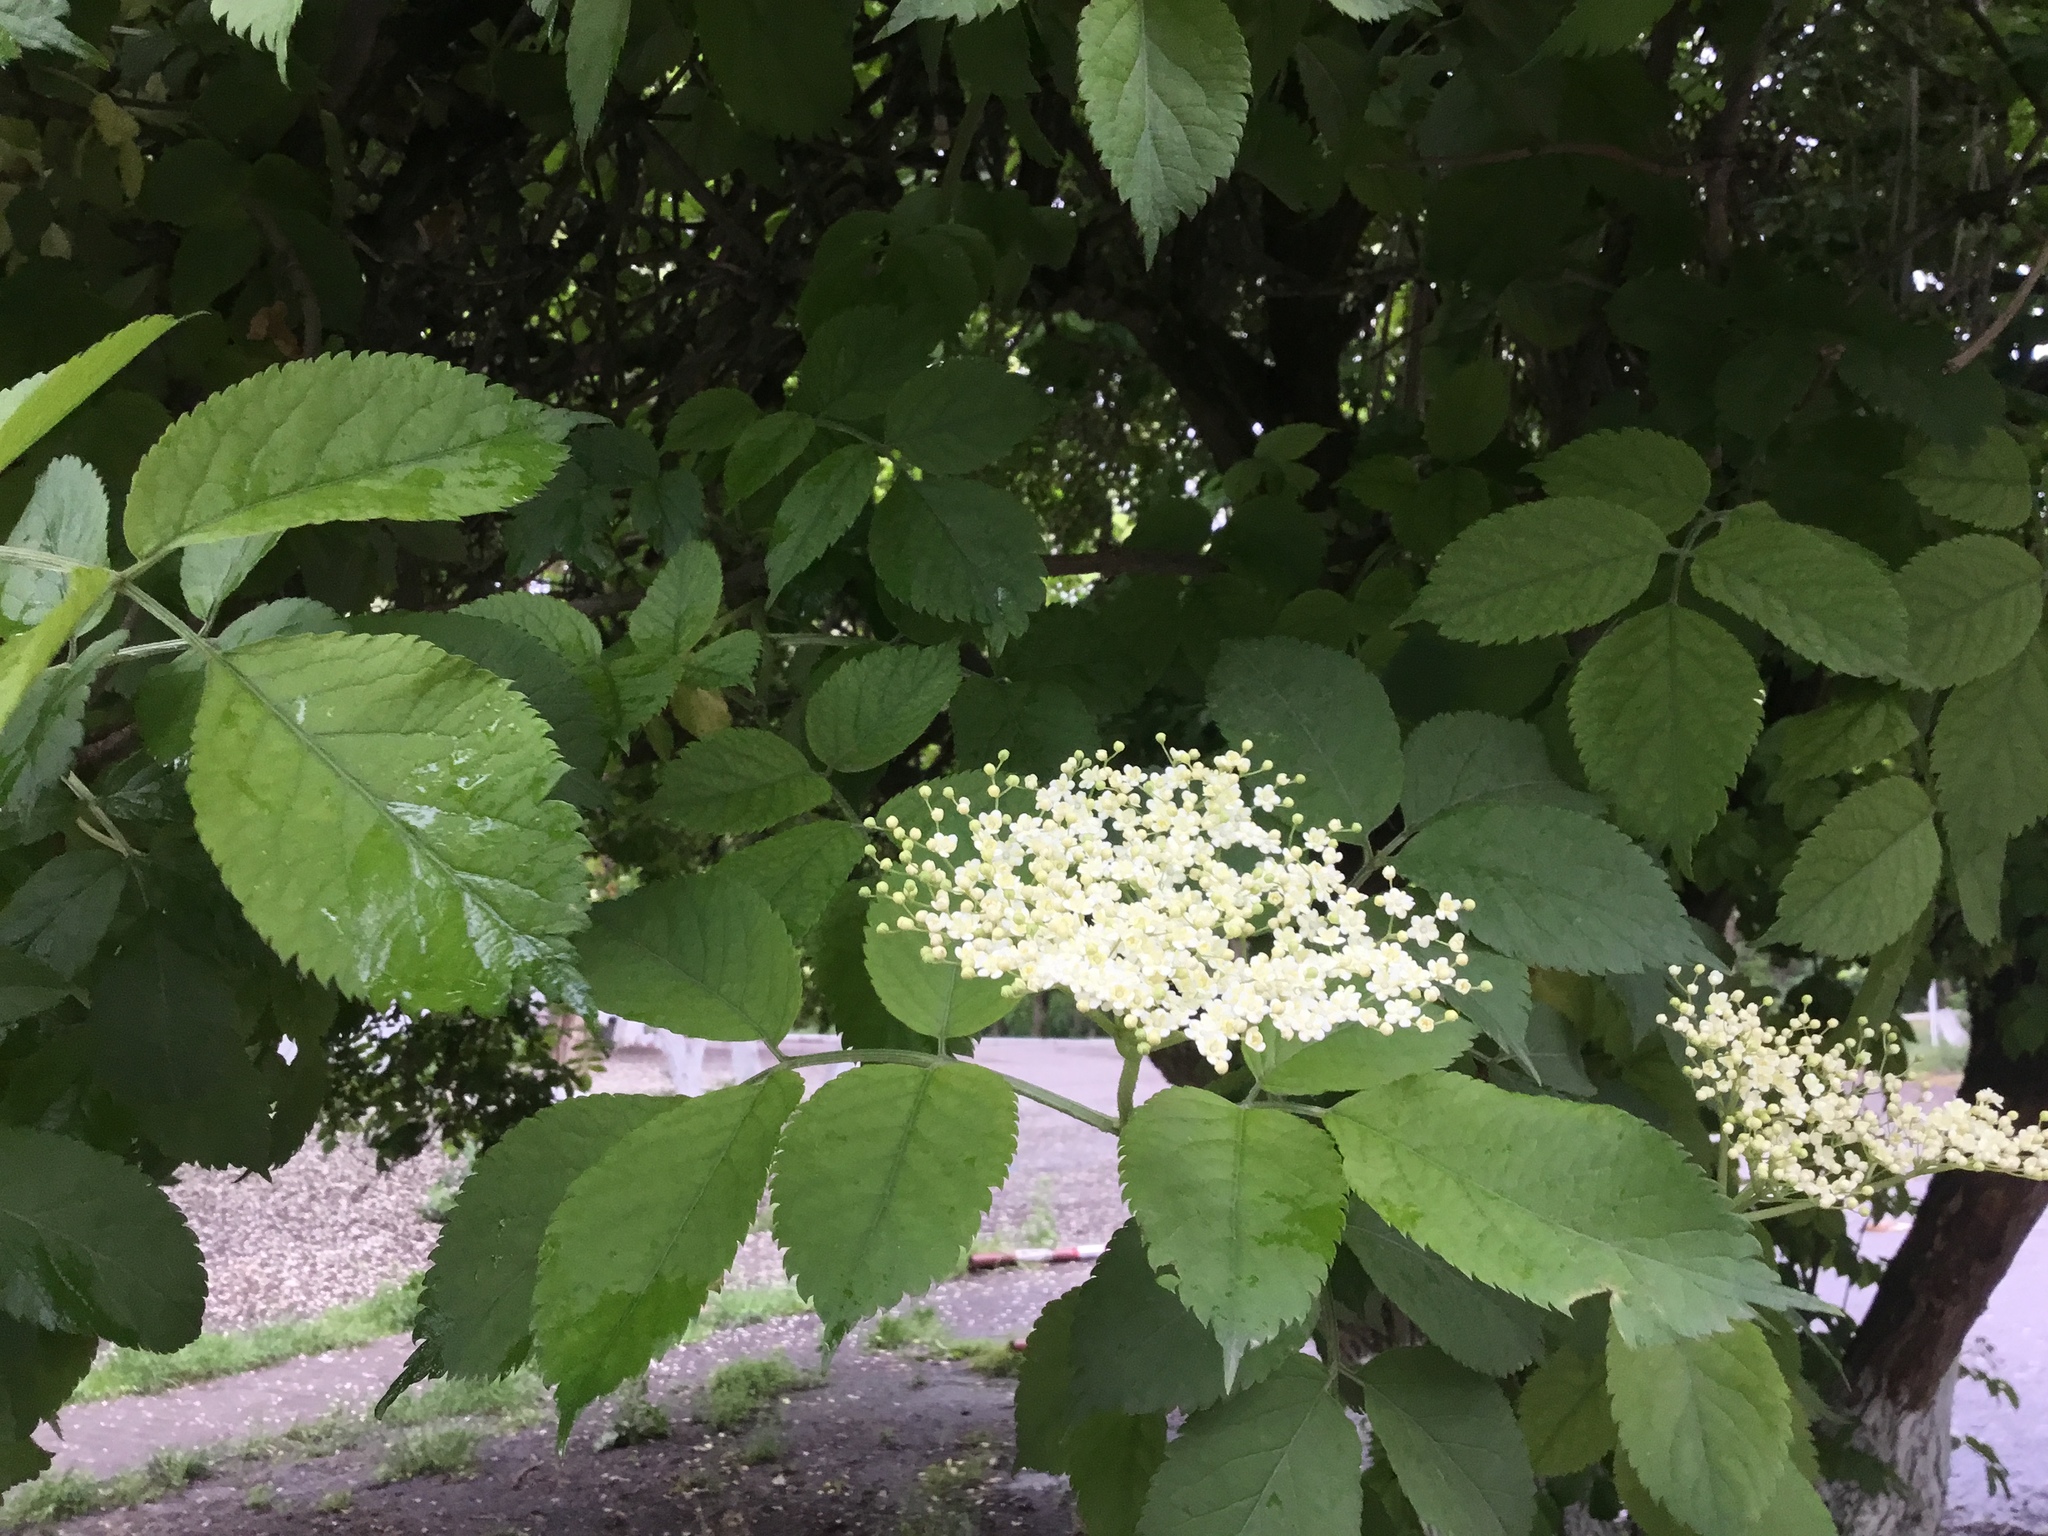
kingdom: Plantae
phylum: Tracheophyta
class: Magnoliopsida
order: Dipsacales
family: Viburnaceae
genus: Sambucus
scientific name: Sambucus nigra
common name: Elder
